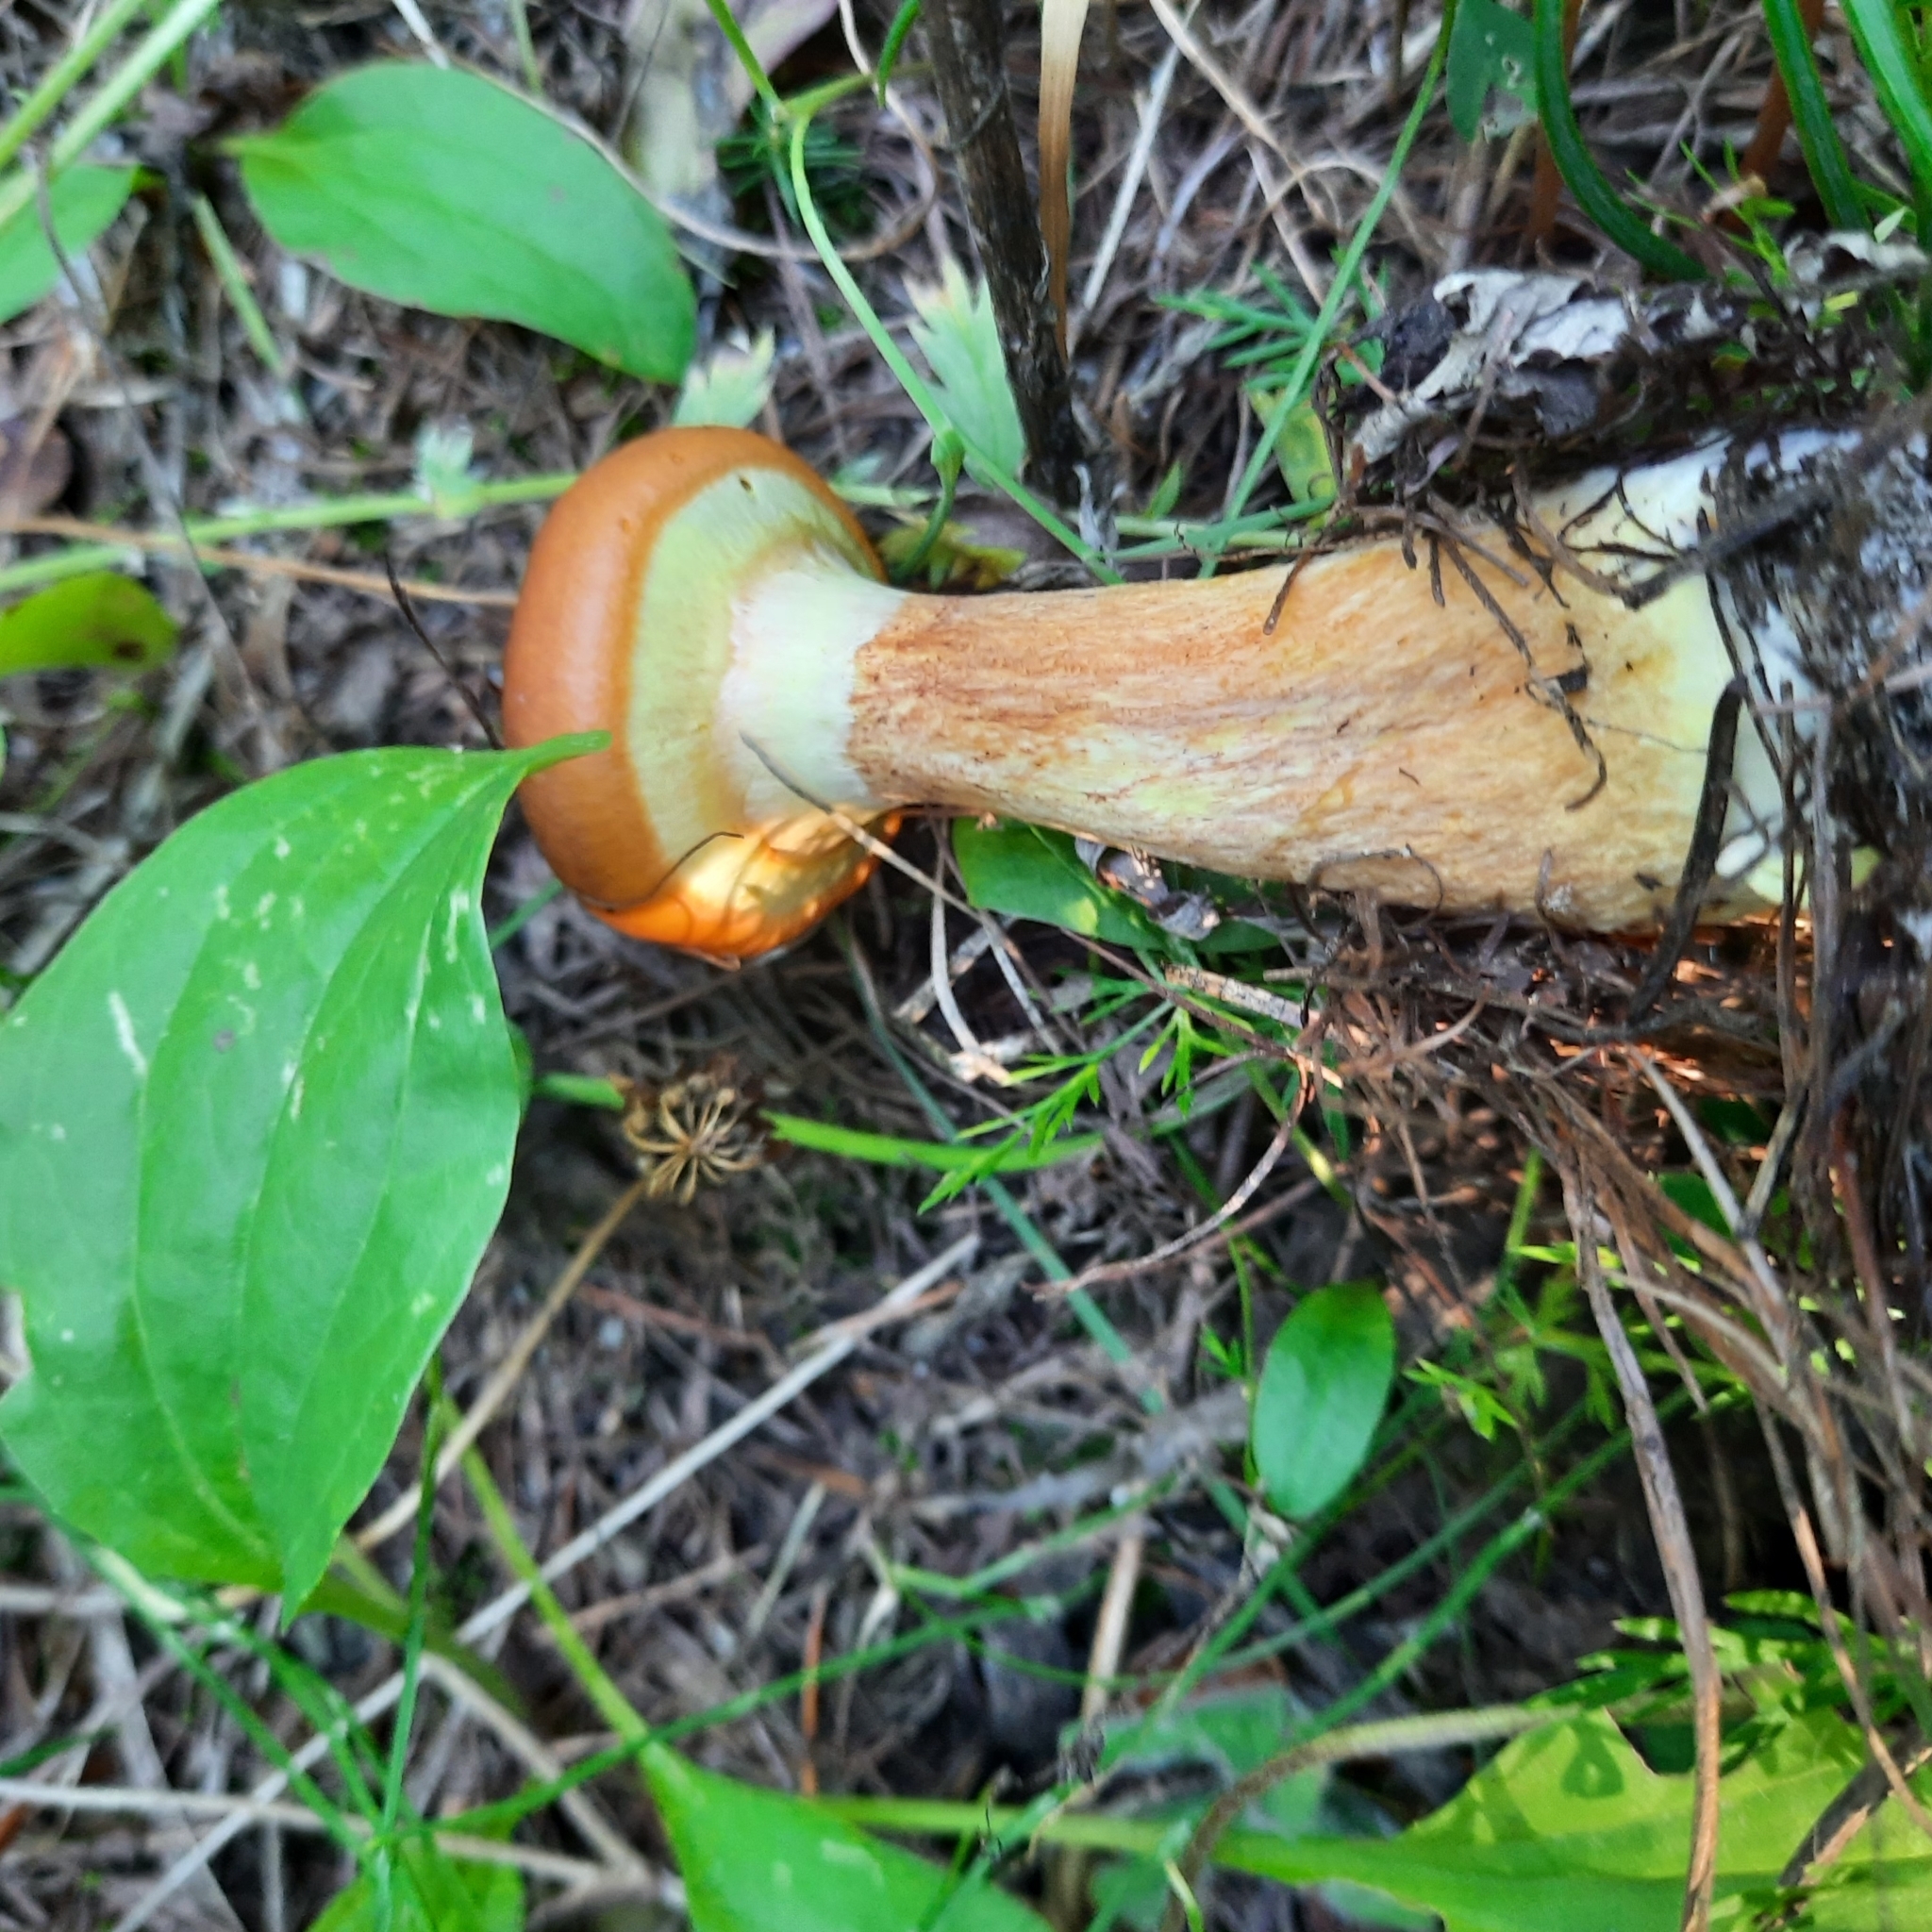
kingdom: Fungi
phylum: Basidiomycota
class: Agaricomycetes
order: Boletales
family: Suillaceae
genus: Suillus
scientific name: Suillus grevillei
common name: Larch bolete
